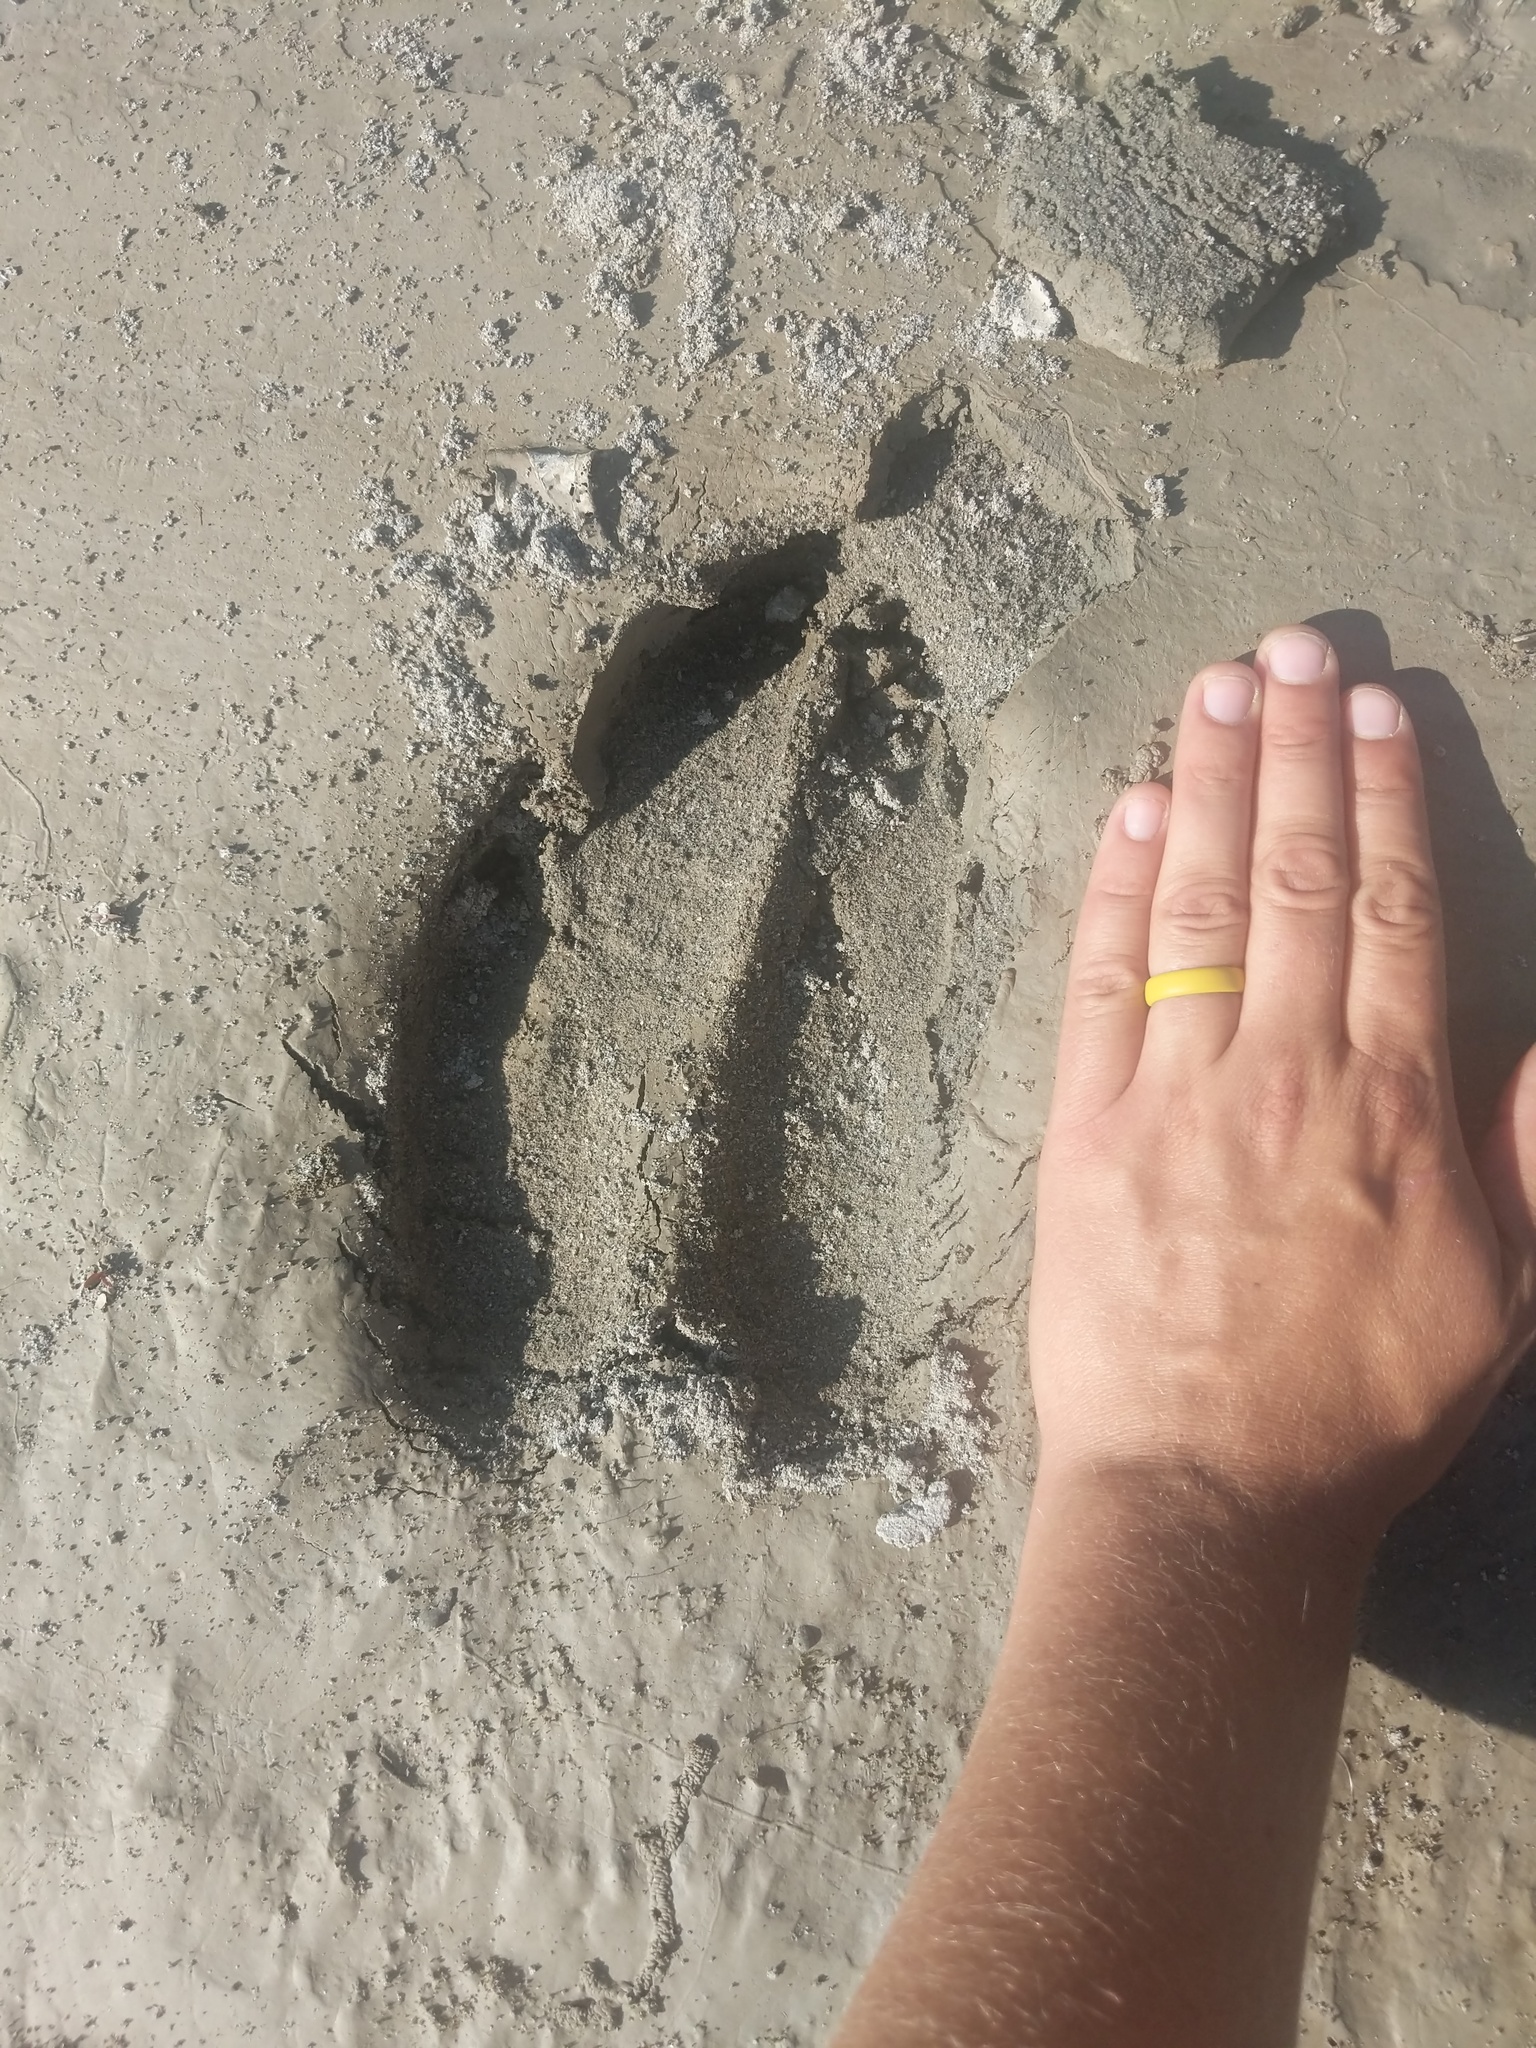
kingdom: Animalia
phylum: Chordata
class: Mammalia
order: Artiodactyla
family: Cervidae
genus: Alces
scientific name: Alces alces
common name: Moose
